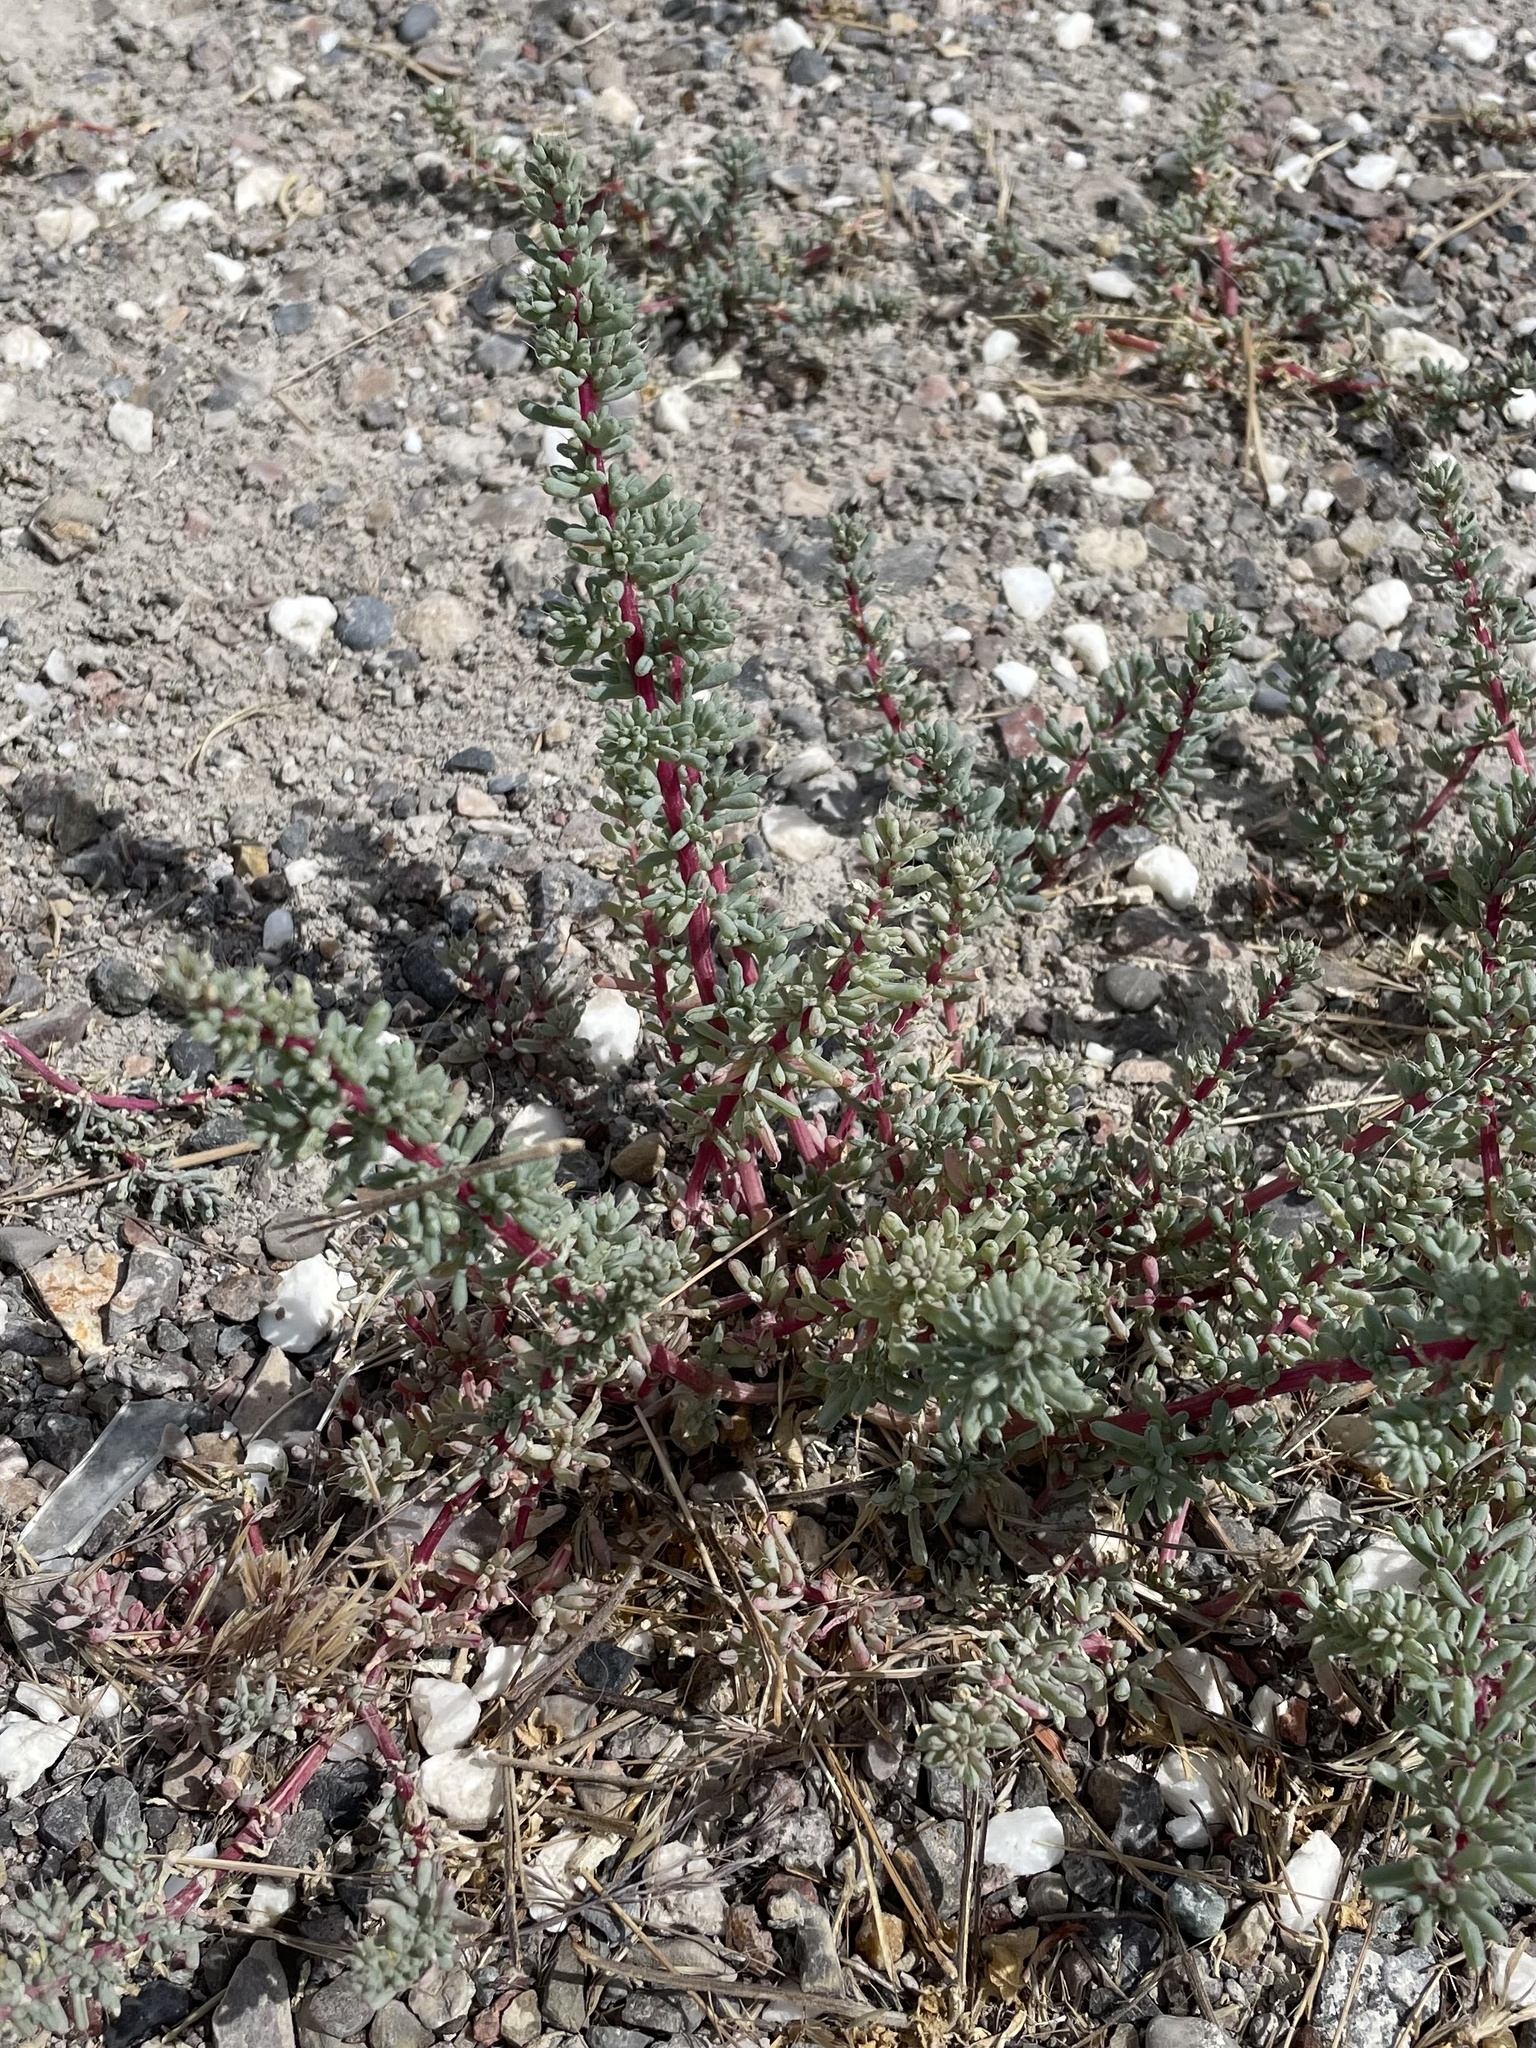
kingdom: Plantae
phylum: Tracheophyta
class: Magnoliopsida
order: Caryophyllales
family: Amaranthaceae
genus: Halogeton
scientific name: Halogeton glomeratus
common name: Saltlover
